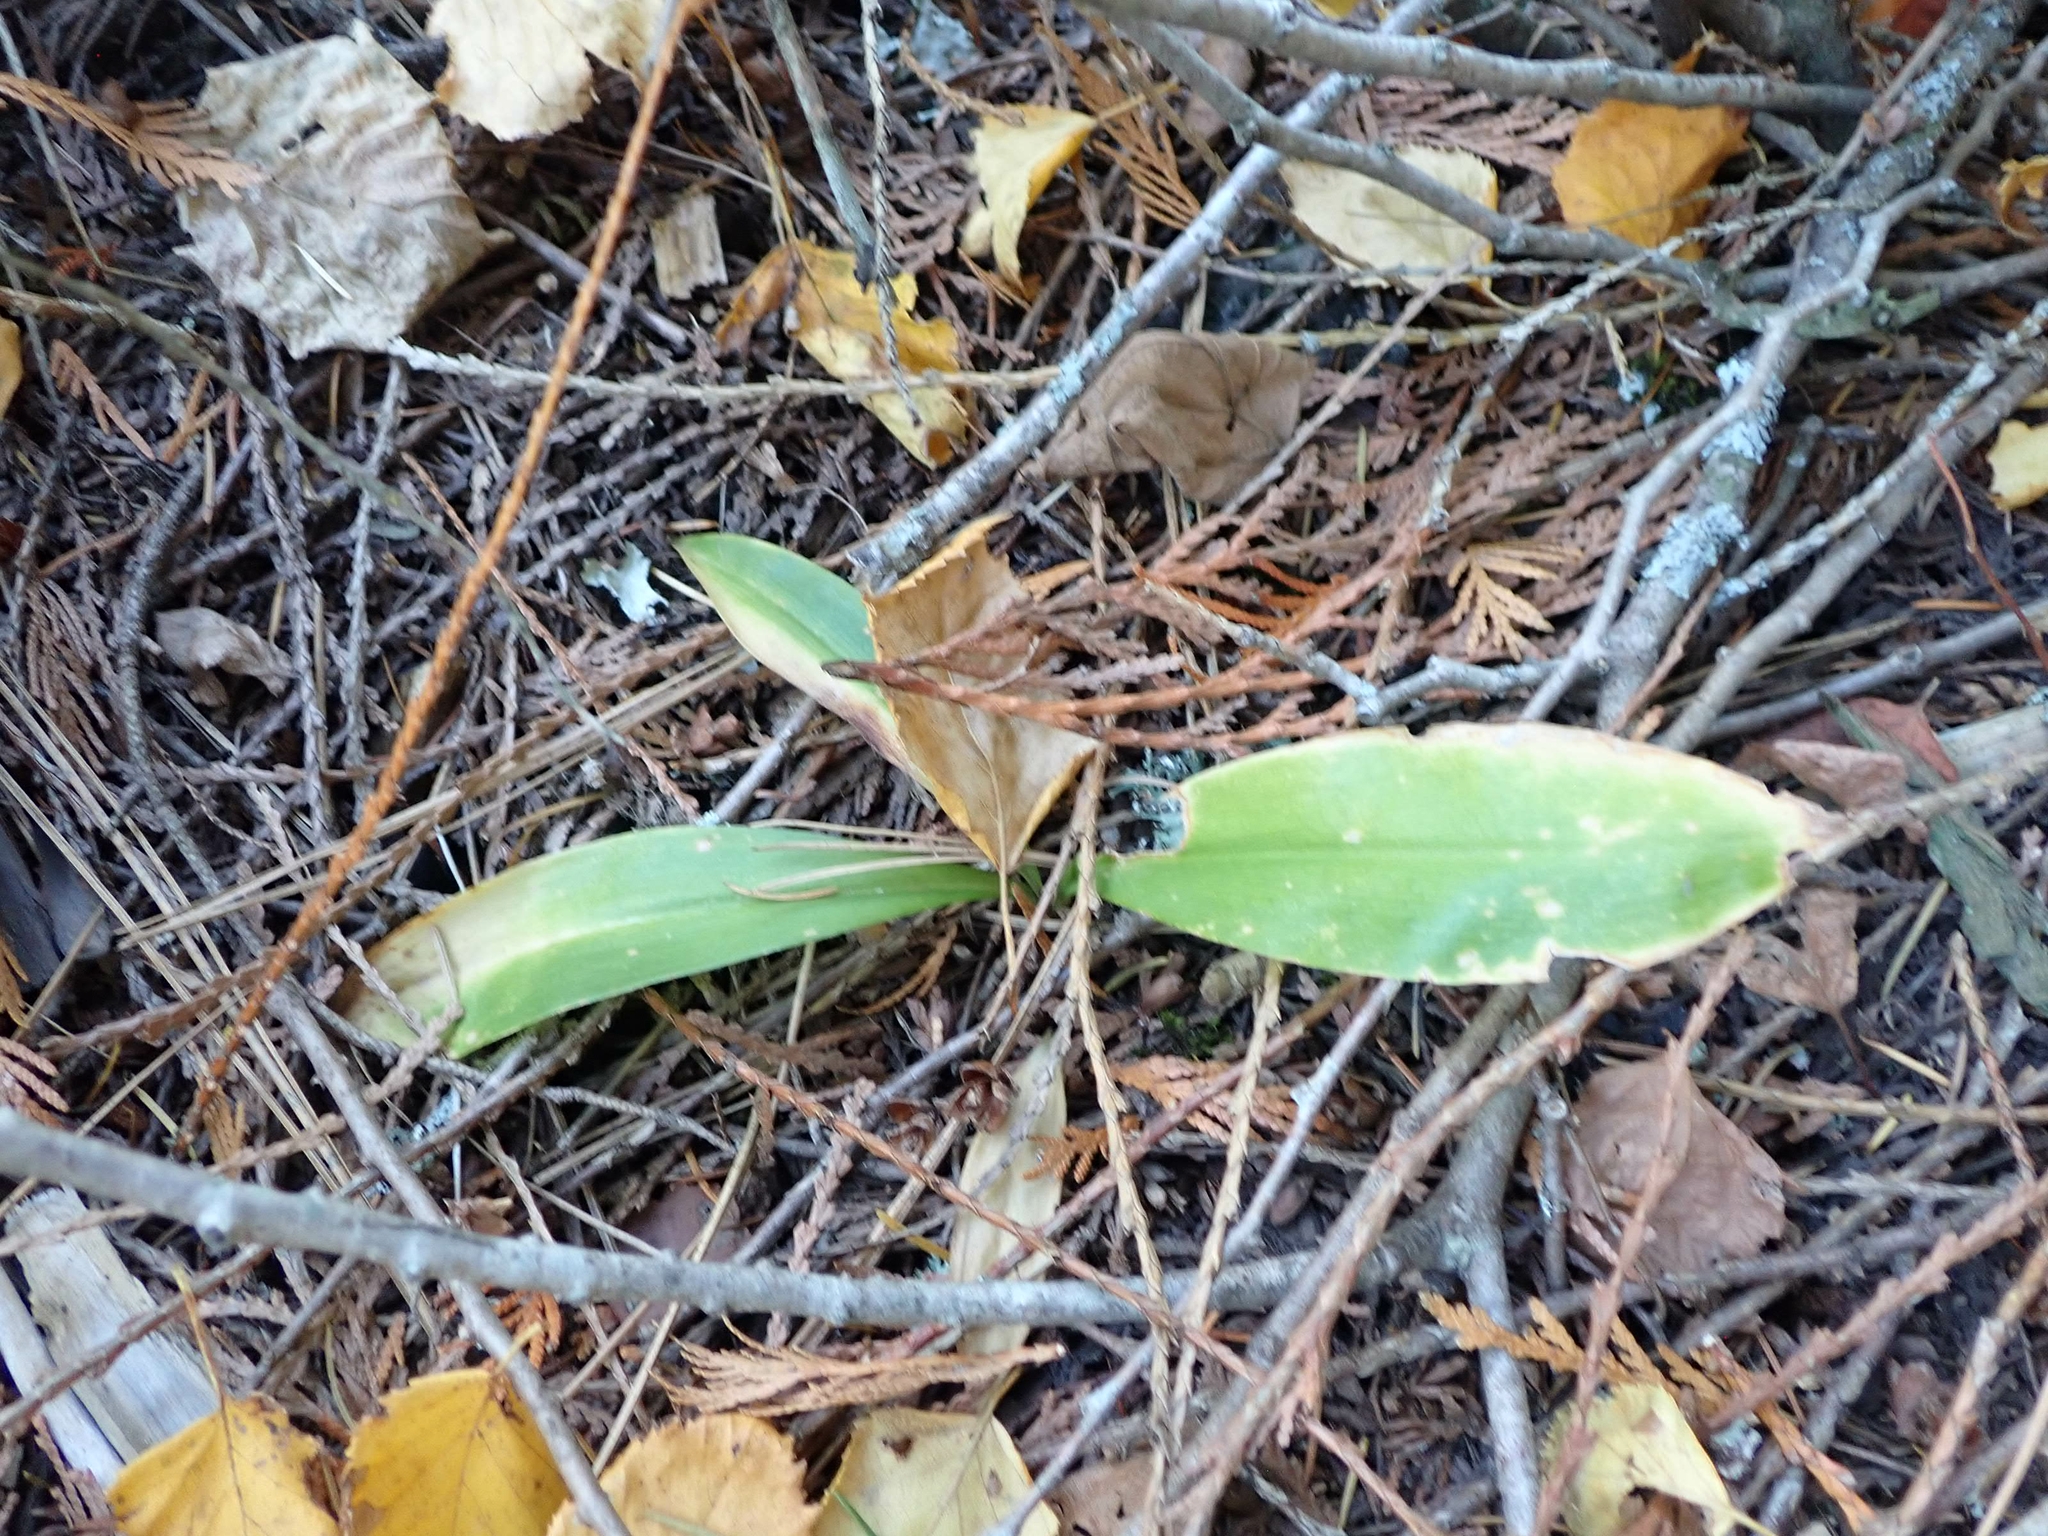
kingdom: Plantae
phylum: Tracheophyta
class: Liliopsida
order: Liliales
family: Liliaceae
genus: Clintonia
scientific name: Clintonia uniflora
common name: Queen's cup
